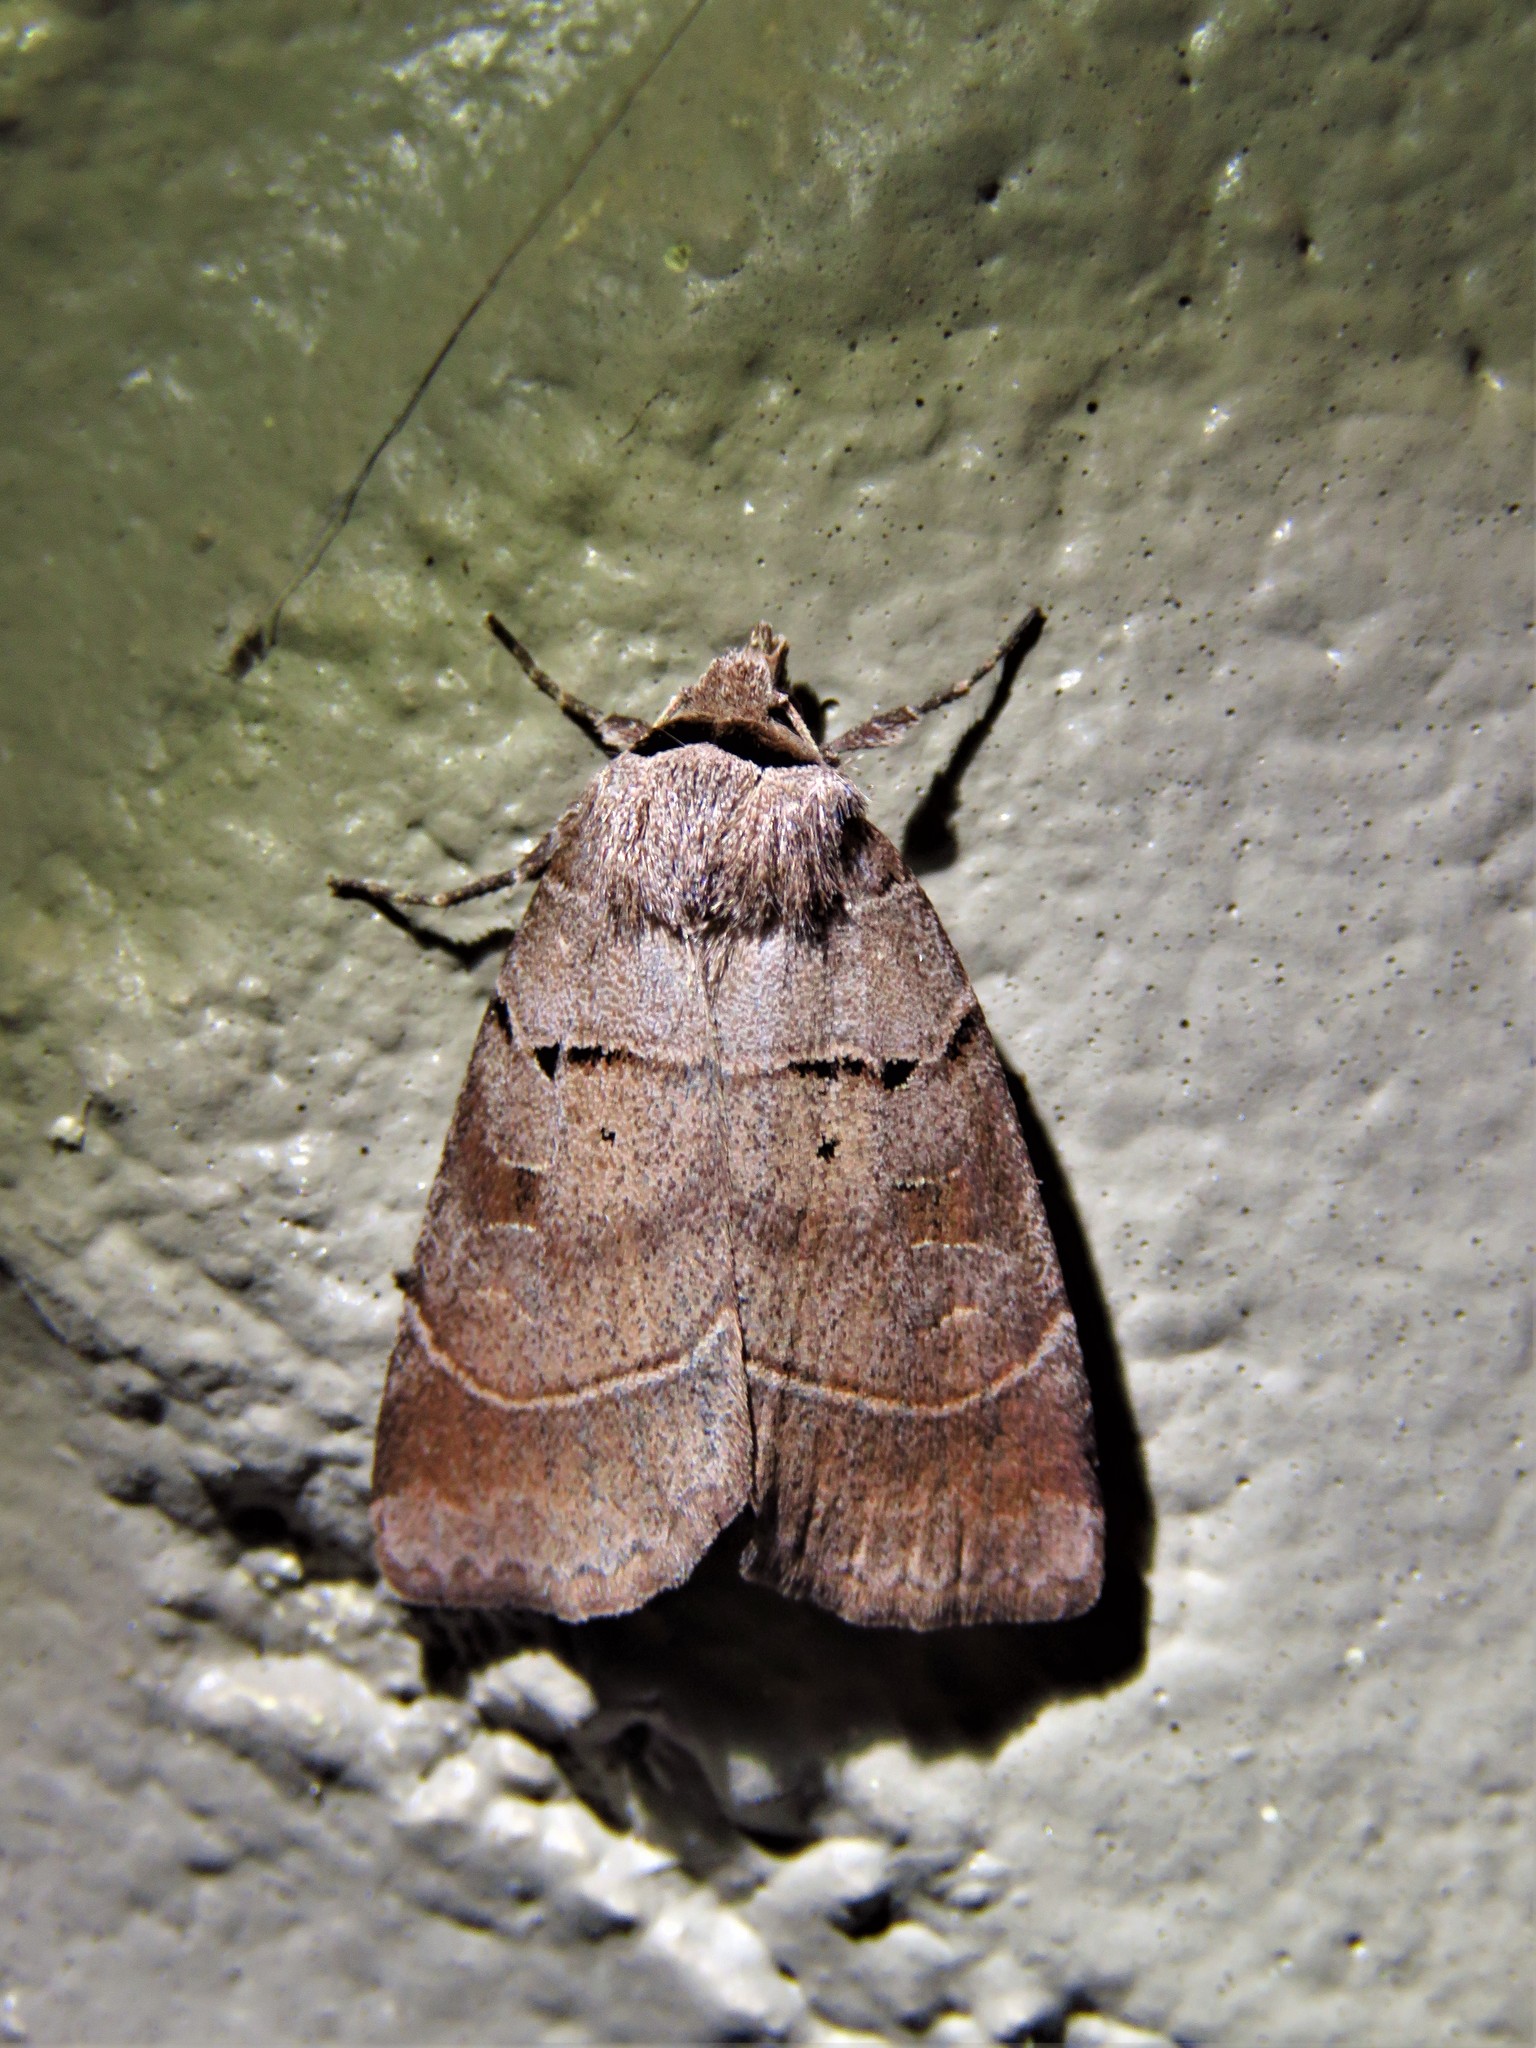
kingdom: Animalia
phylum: Arthropoda
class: Insecta
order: Lepidoptera
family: Noctuidae
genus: Agnorisma
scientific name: Agnorisma badinodis
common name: Pale-banded dart
